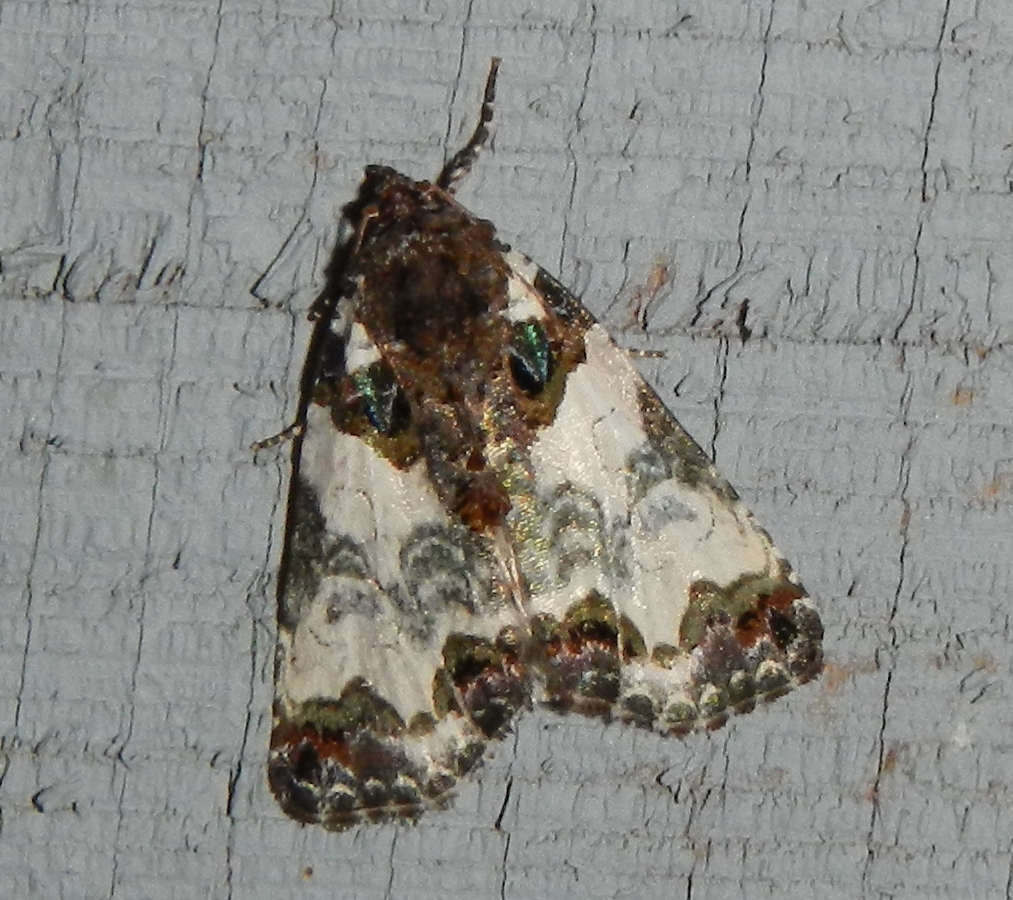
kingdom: Animalia
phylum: Arthropoda
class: Insecta
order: Lepidoptera
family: Noctuidae
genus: Cerma
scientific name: Cerma cerintha
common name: Tufted bird-dropping moth
